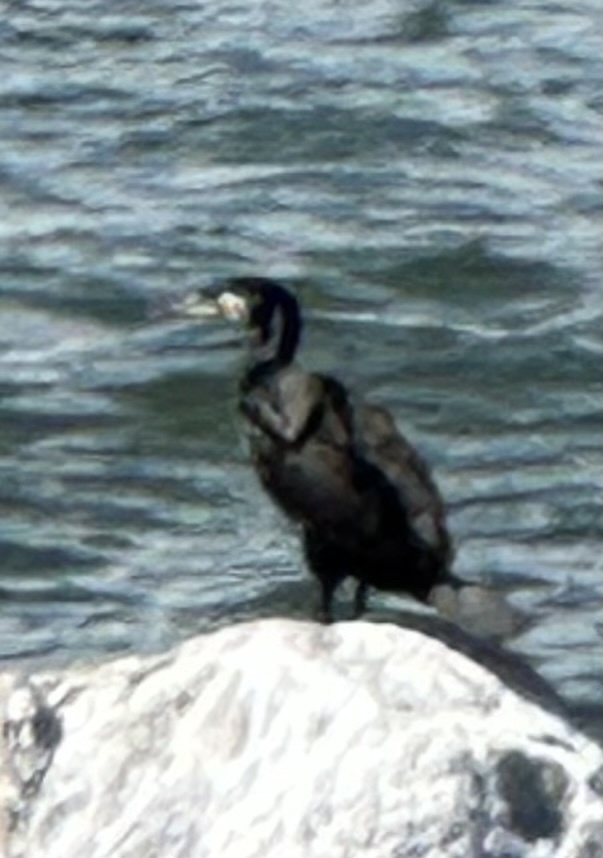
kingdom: Animalia
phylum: Chordata
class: Aves
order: Suliformes
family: Phalacrocoracidae
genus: Phalacrocorax
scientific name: Phalacrocorax carbo
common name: Great cormorant
